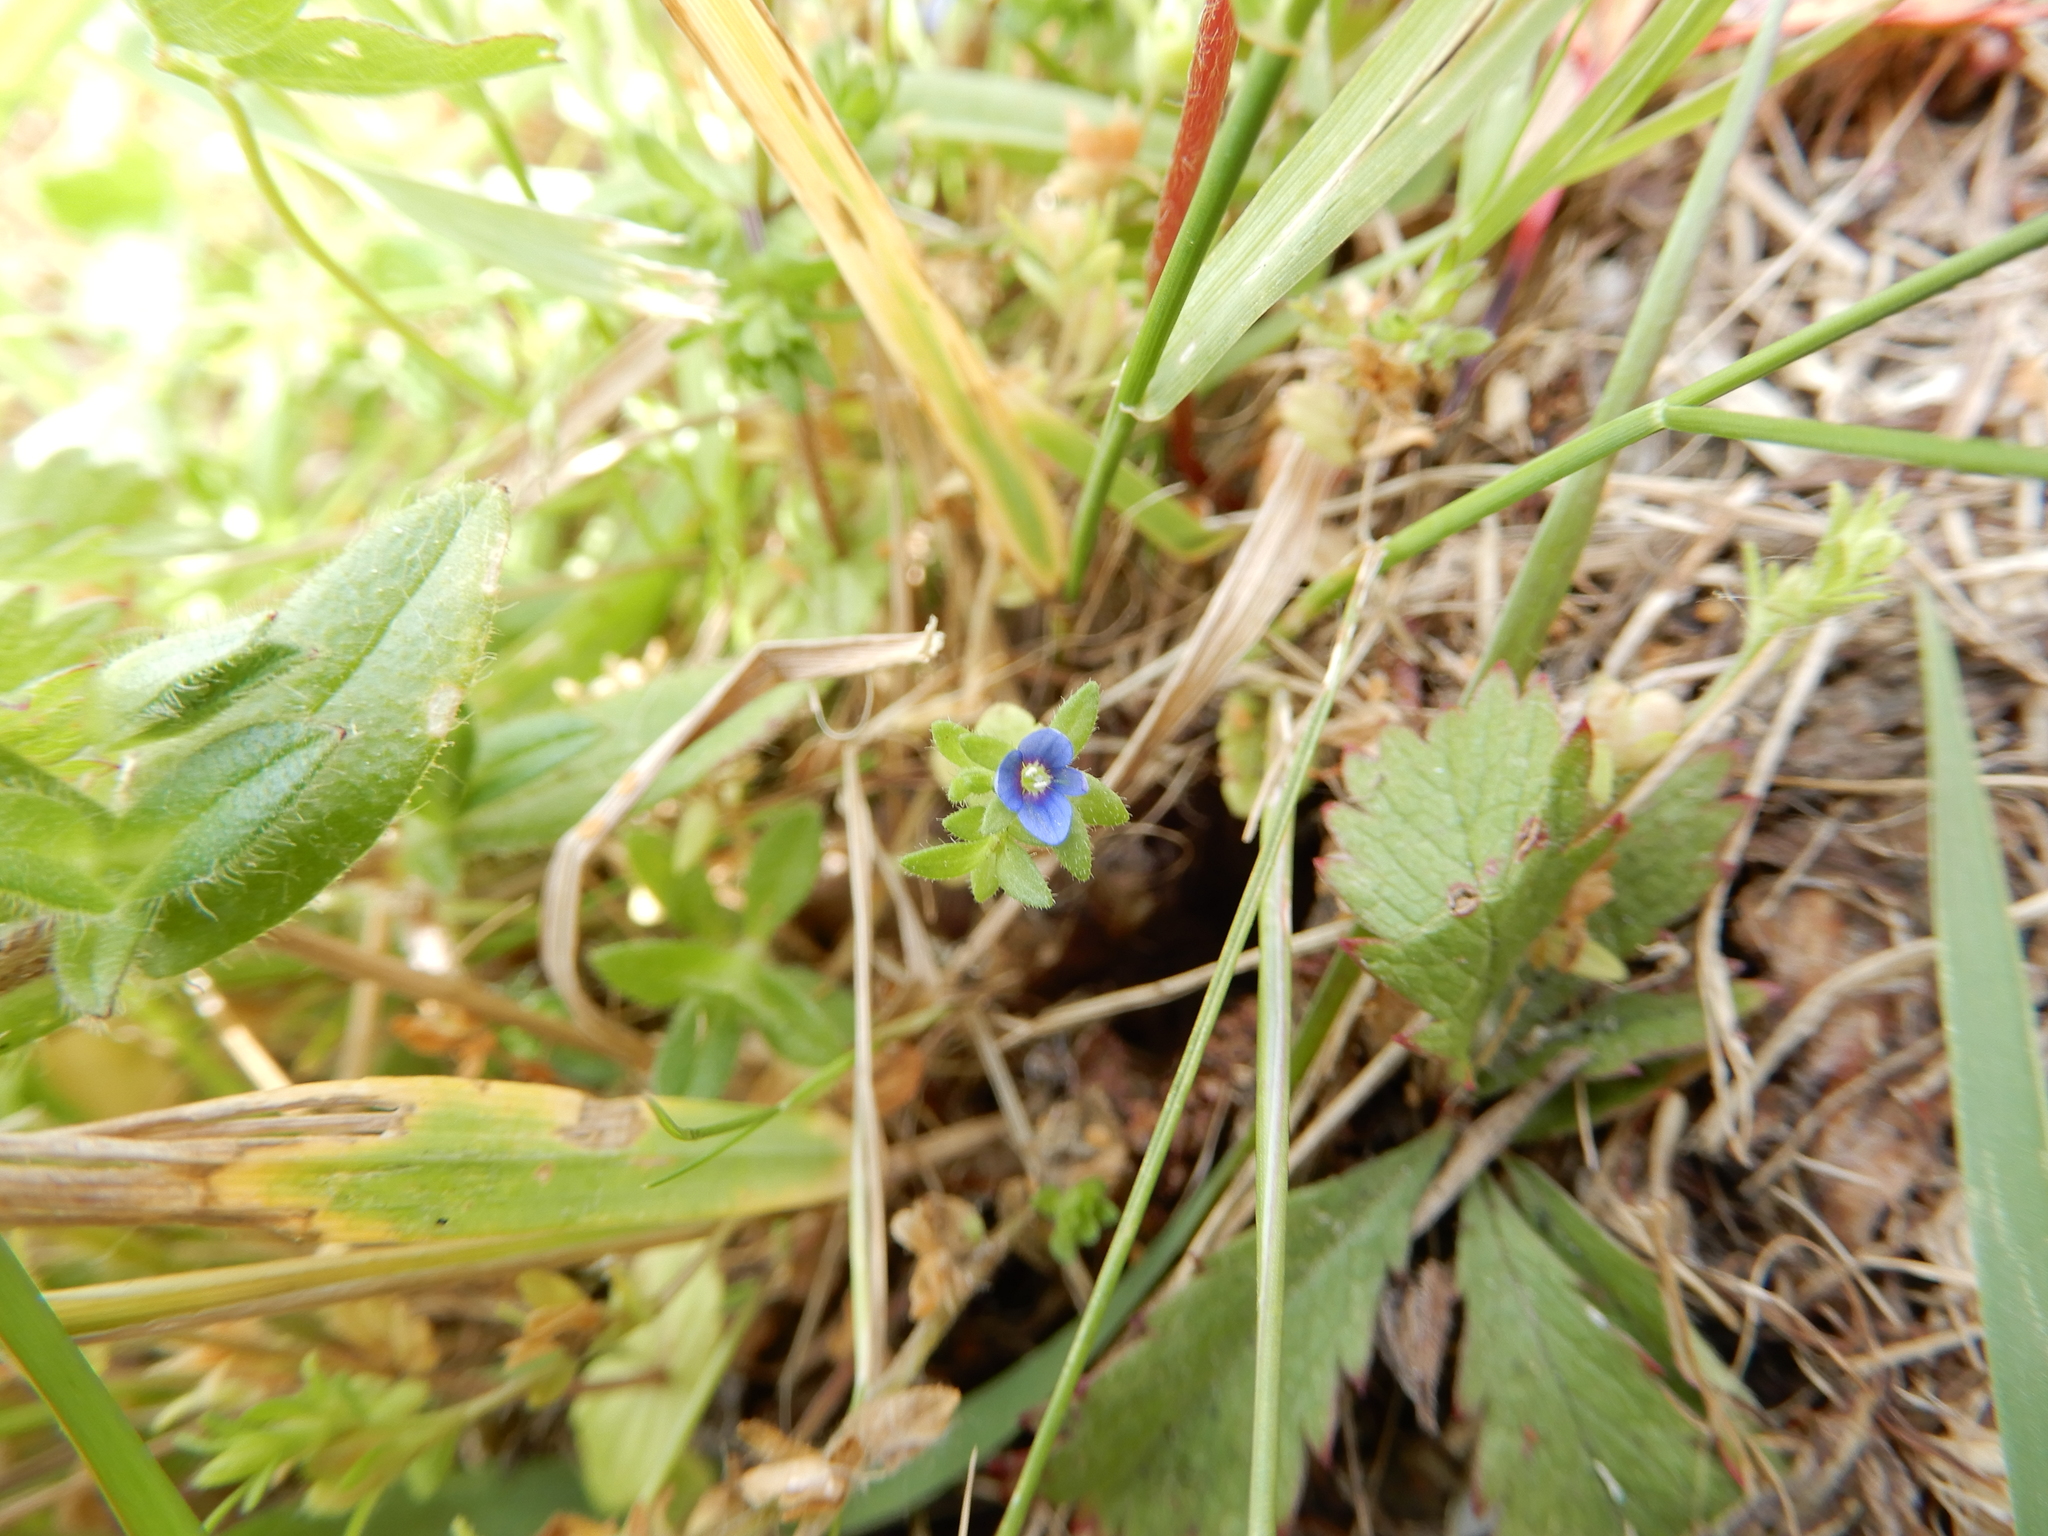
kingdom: Plantae
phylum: Tracheophyta
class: Magnoliopsida
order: Lamiales
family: Plantaginaceae
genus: Veronica
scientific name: Veronica arvensis
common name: Corn speedwell
